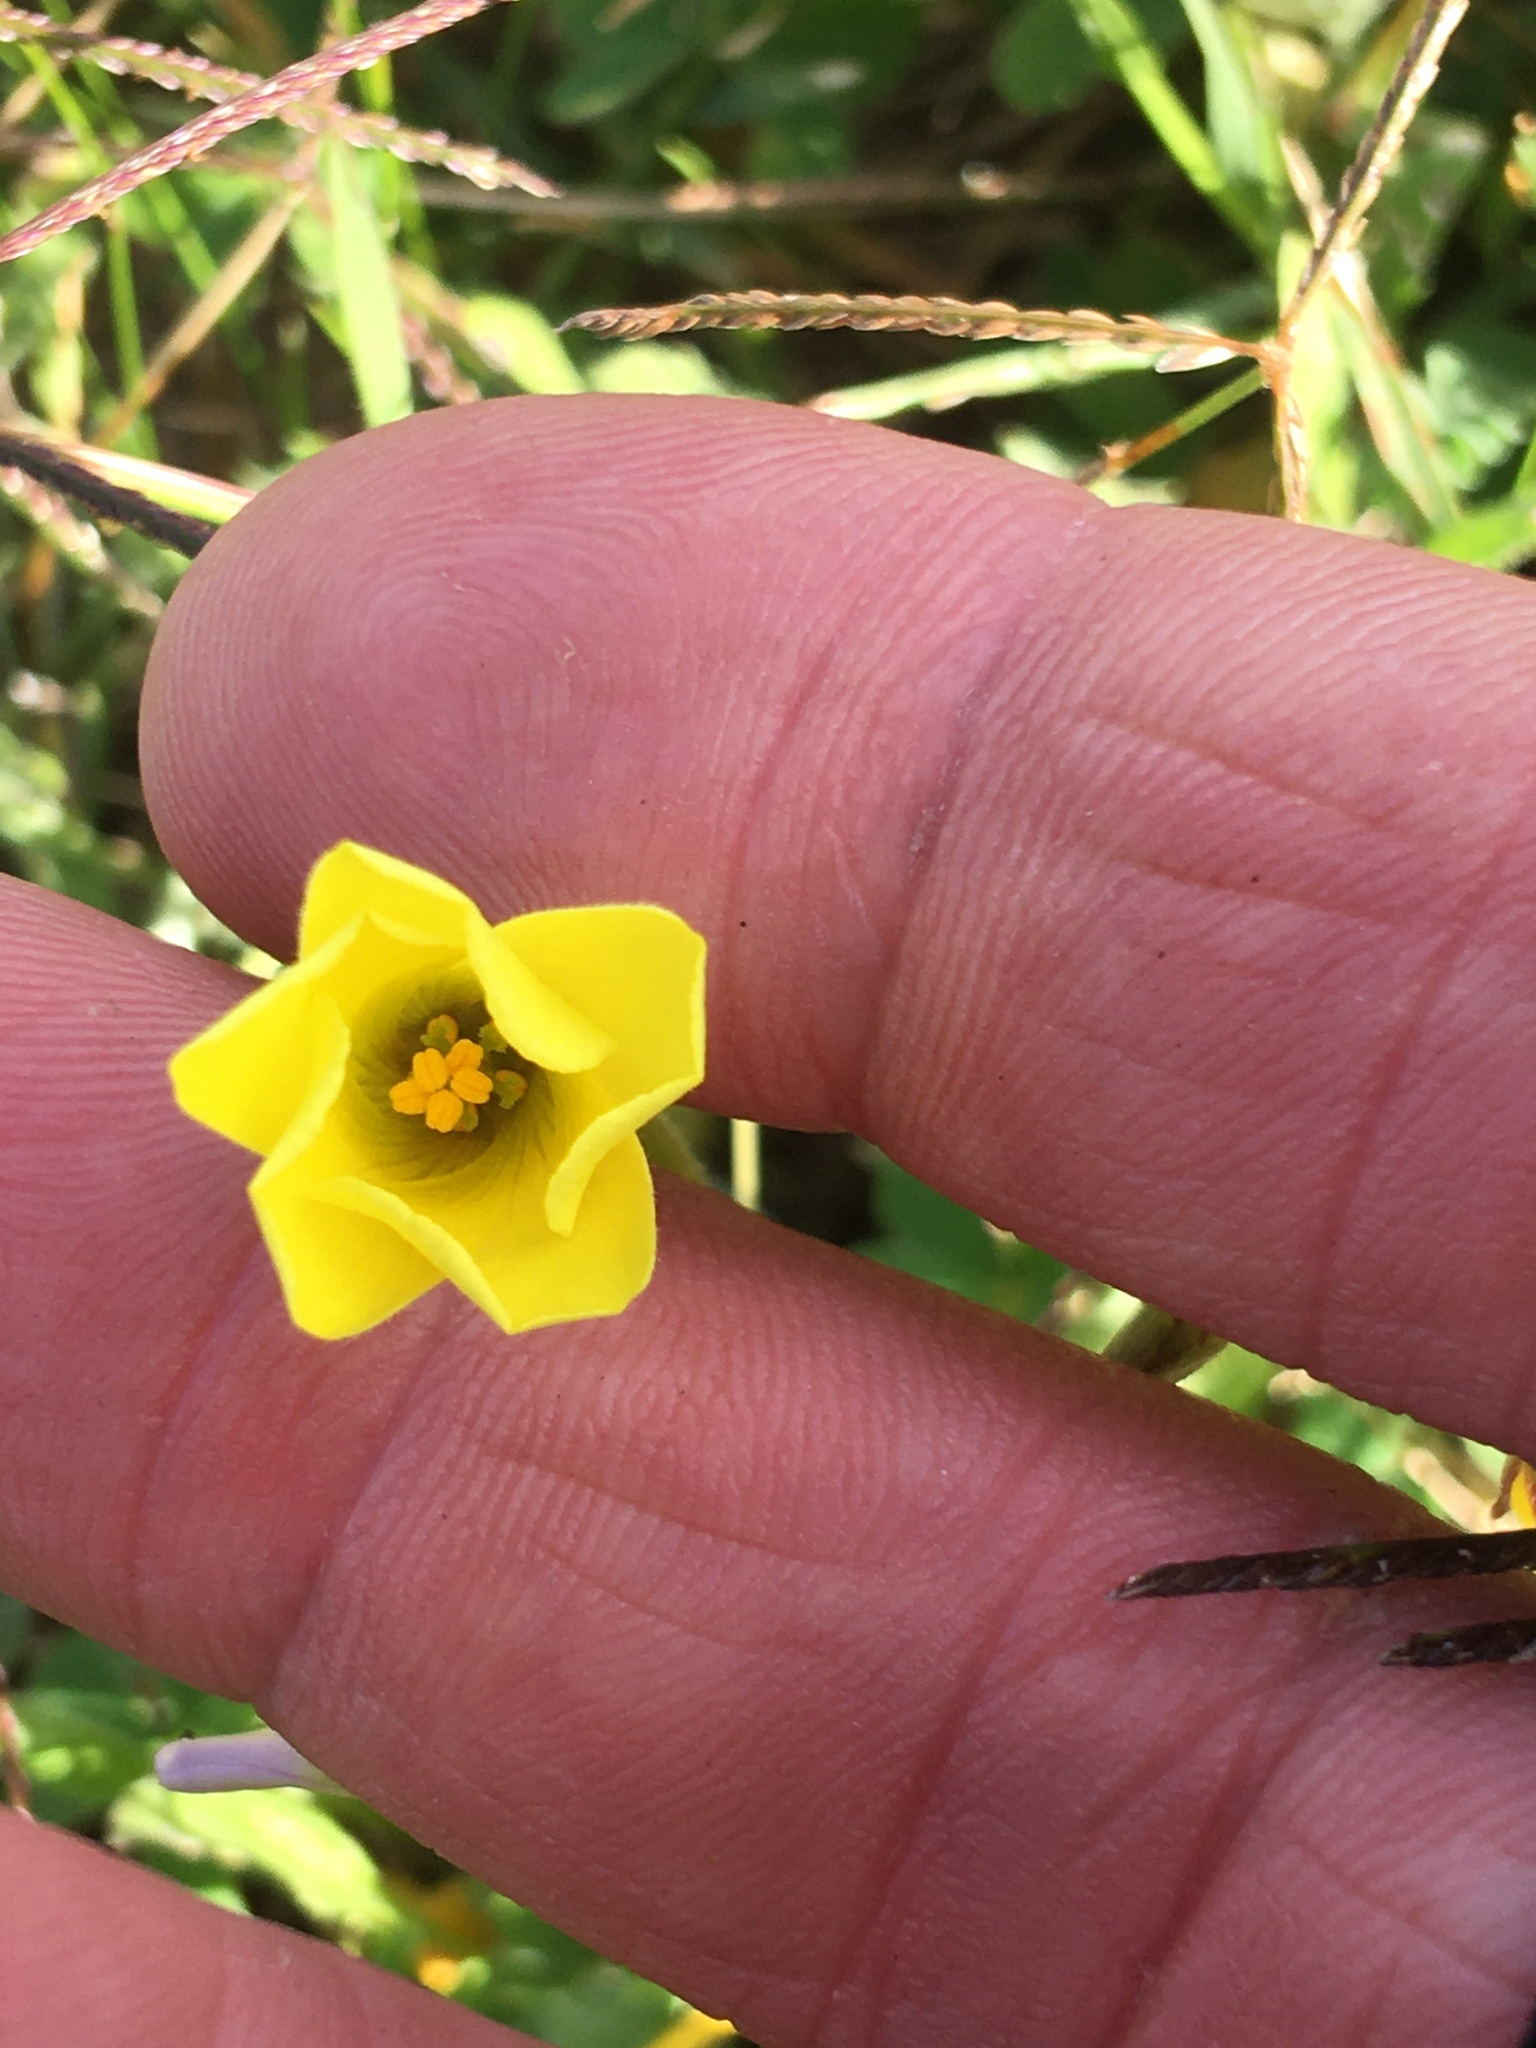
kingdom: Plantae
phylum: Tracheophyta
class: Magnoliopsida
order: Oxalidales
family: Oxalidaceae
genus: Oxalis
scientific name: Oxalis pes-caprae
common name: Bermuda-buttercup
